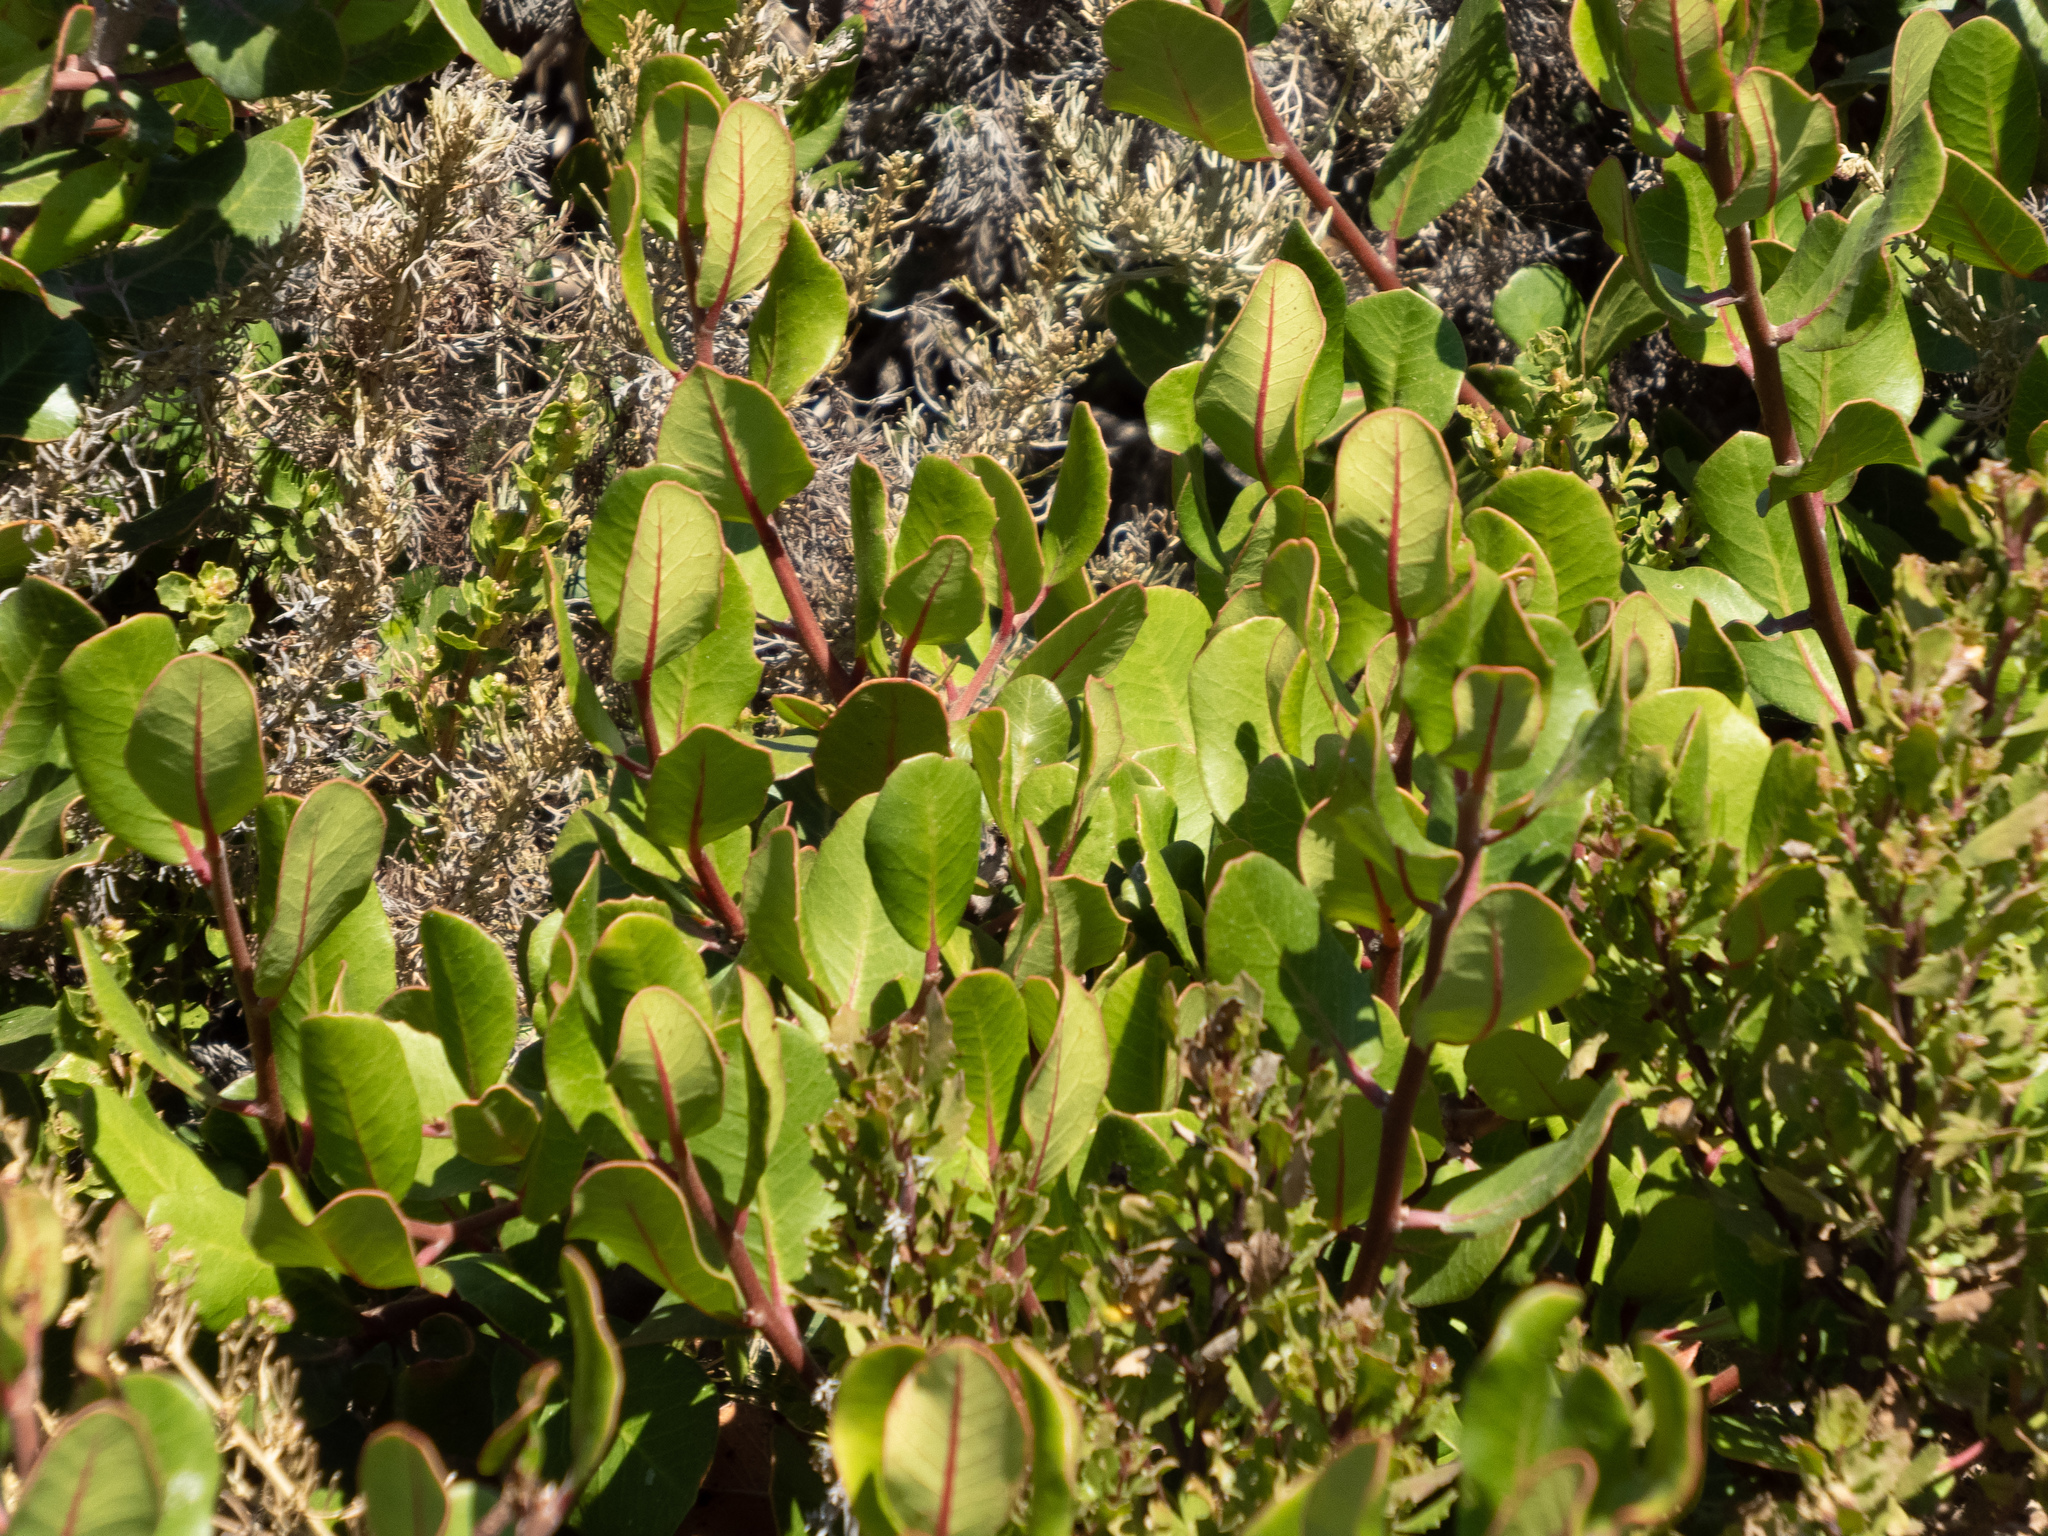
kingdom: Plantae
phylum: Tracheophyta
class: Magnoliopsida
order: Sapindales
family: Anacardiaceae
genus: Rhus
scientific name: Rhus integrifolia
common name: Lemonade sumac
